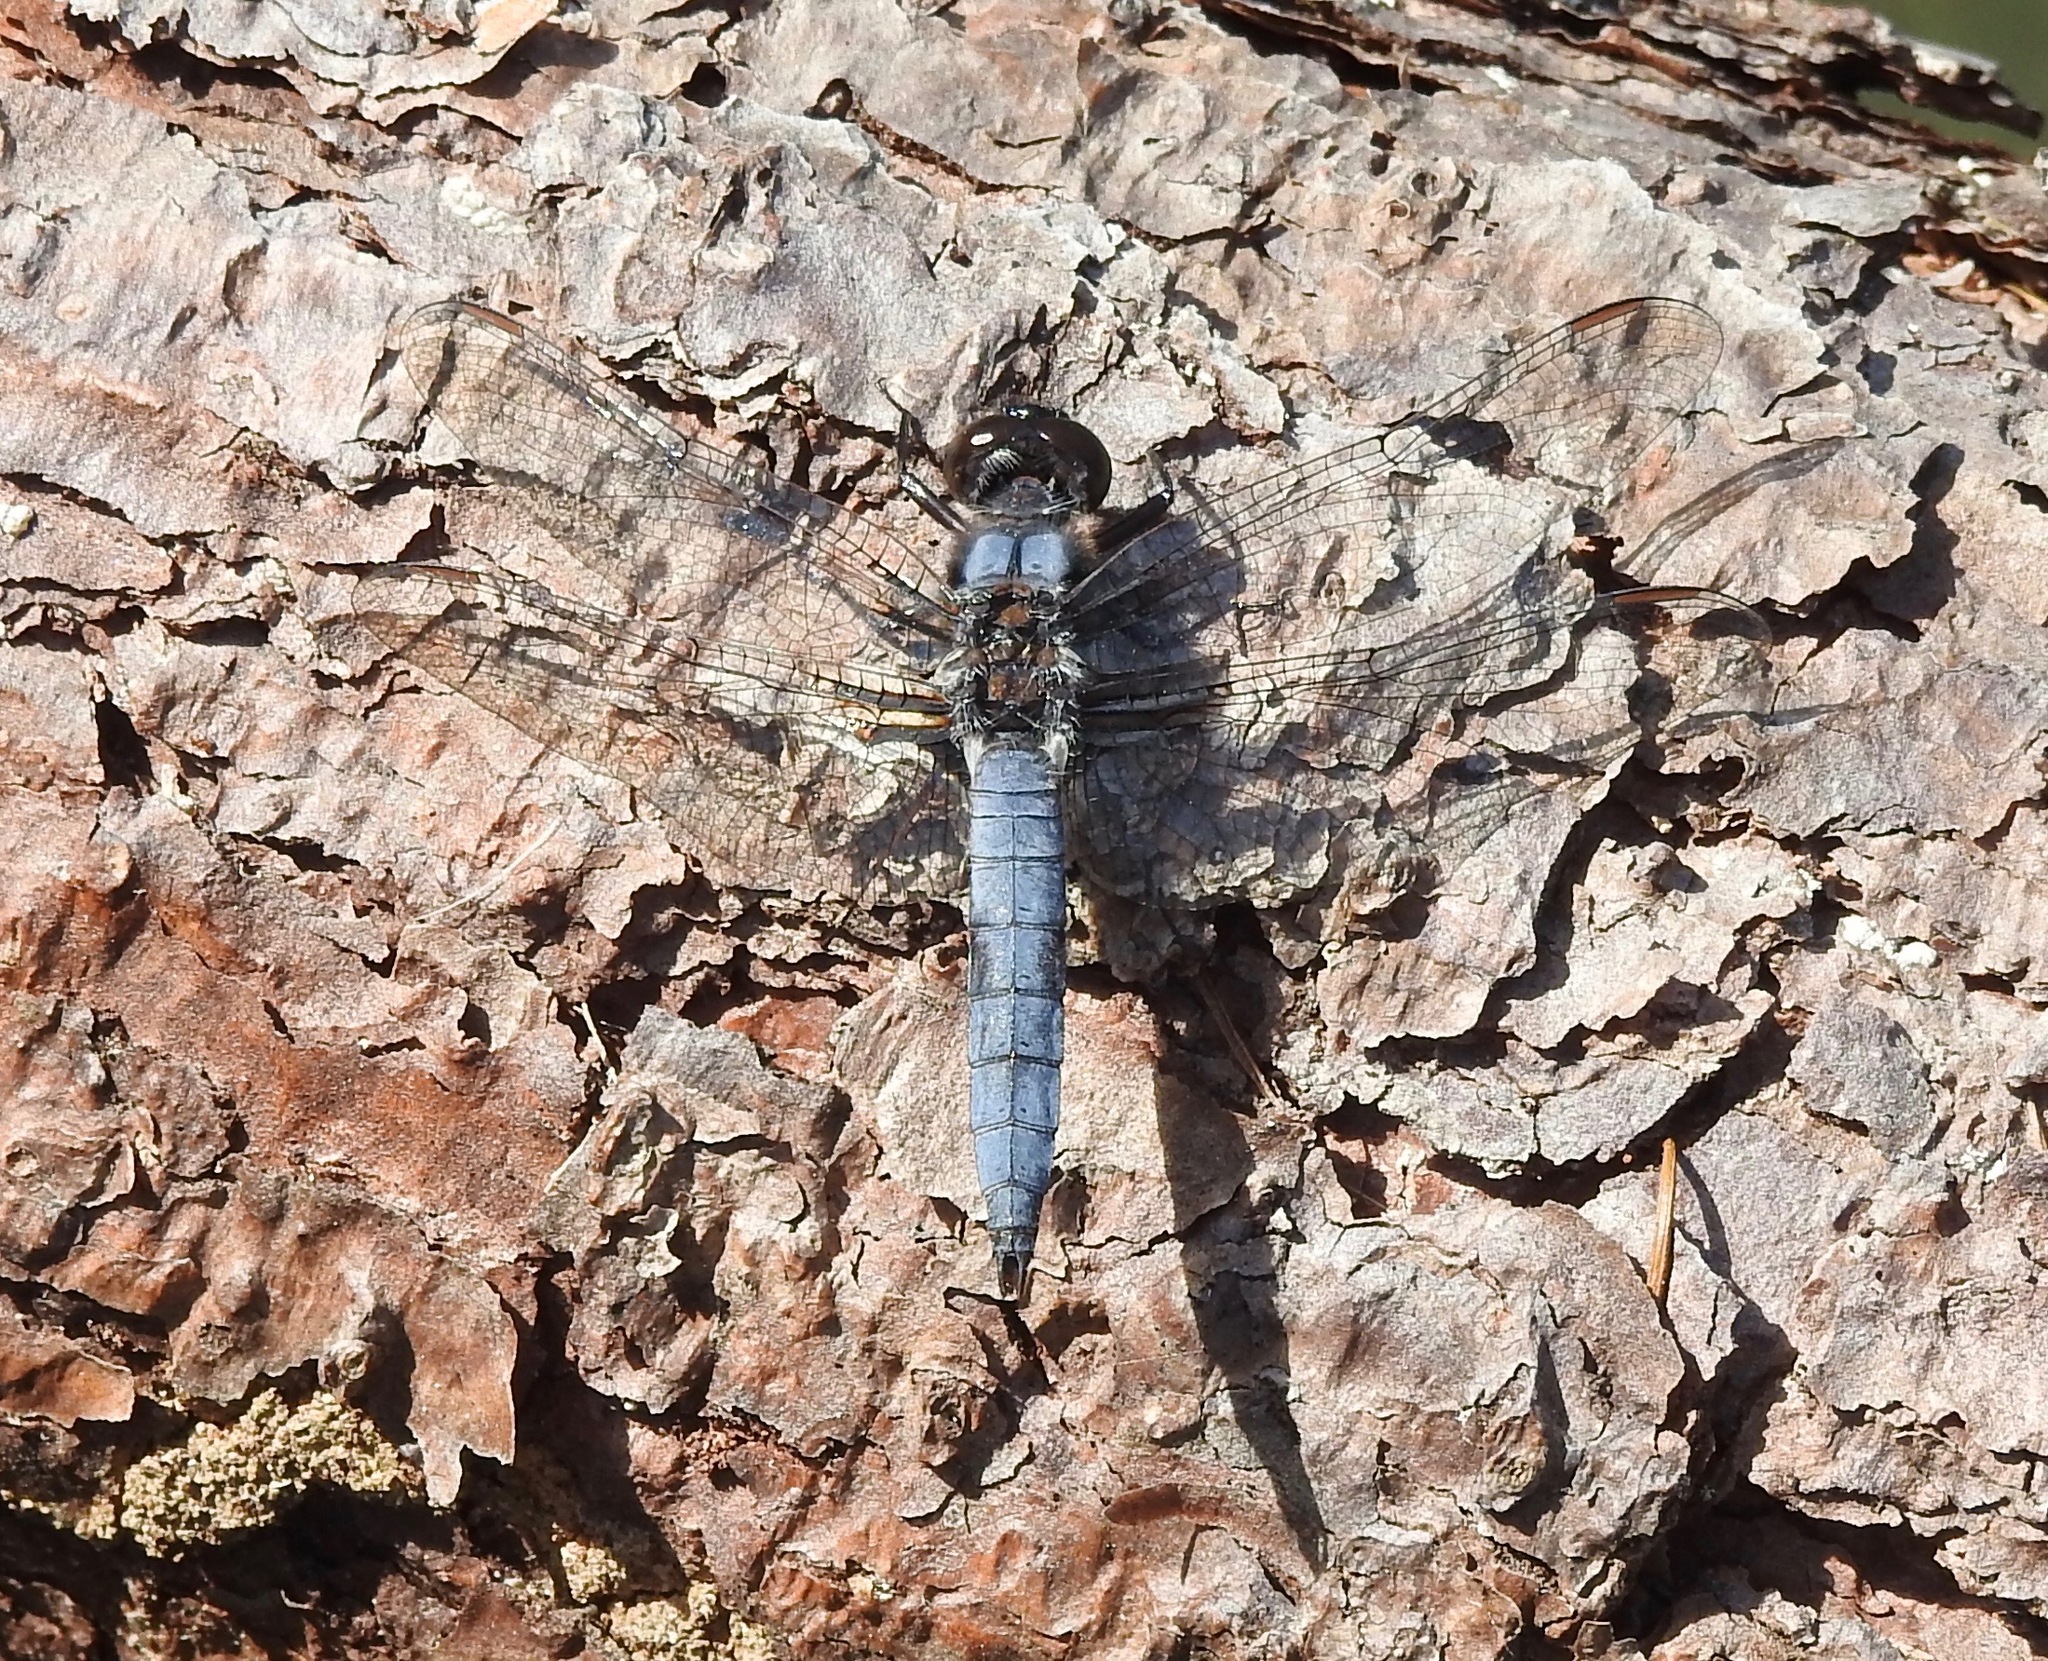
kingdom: Animalia
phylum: Arthropoda
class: Insecta
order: Odonata
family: Libellulidae
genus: Ladona
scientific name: Ladona deplanata
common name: Blue corporal
